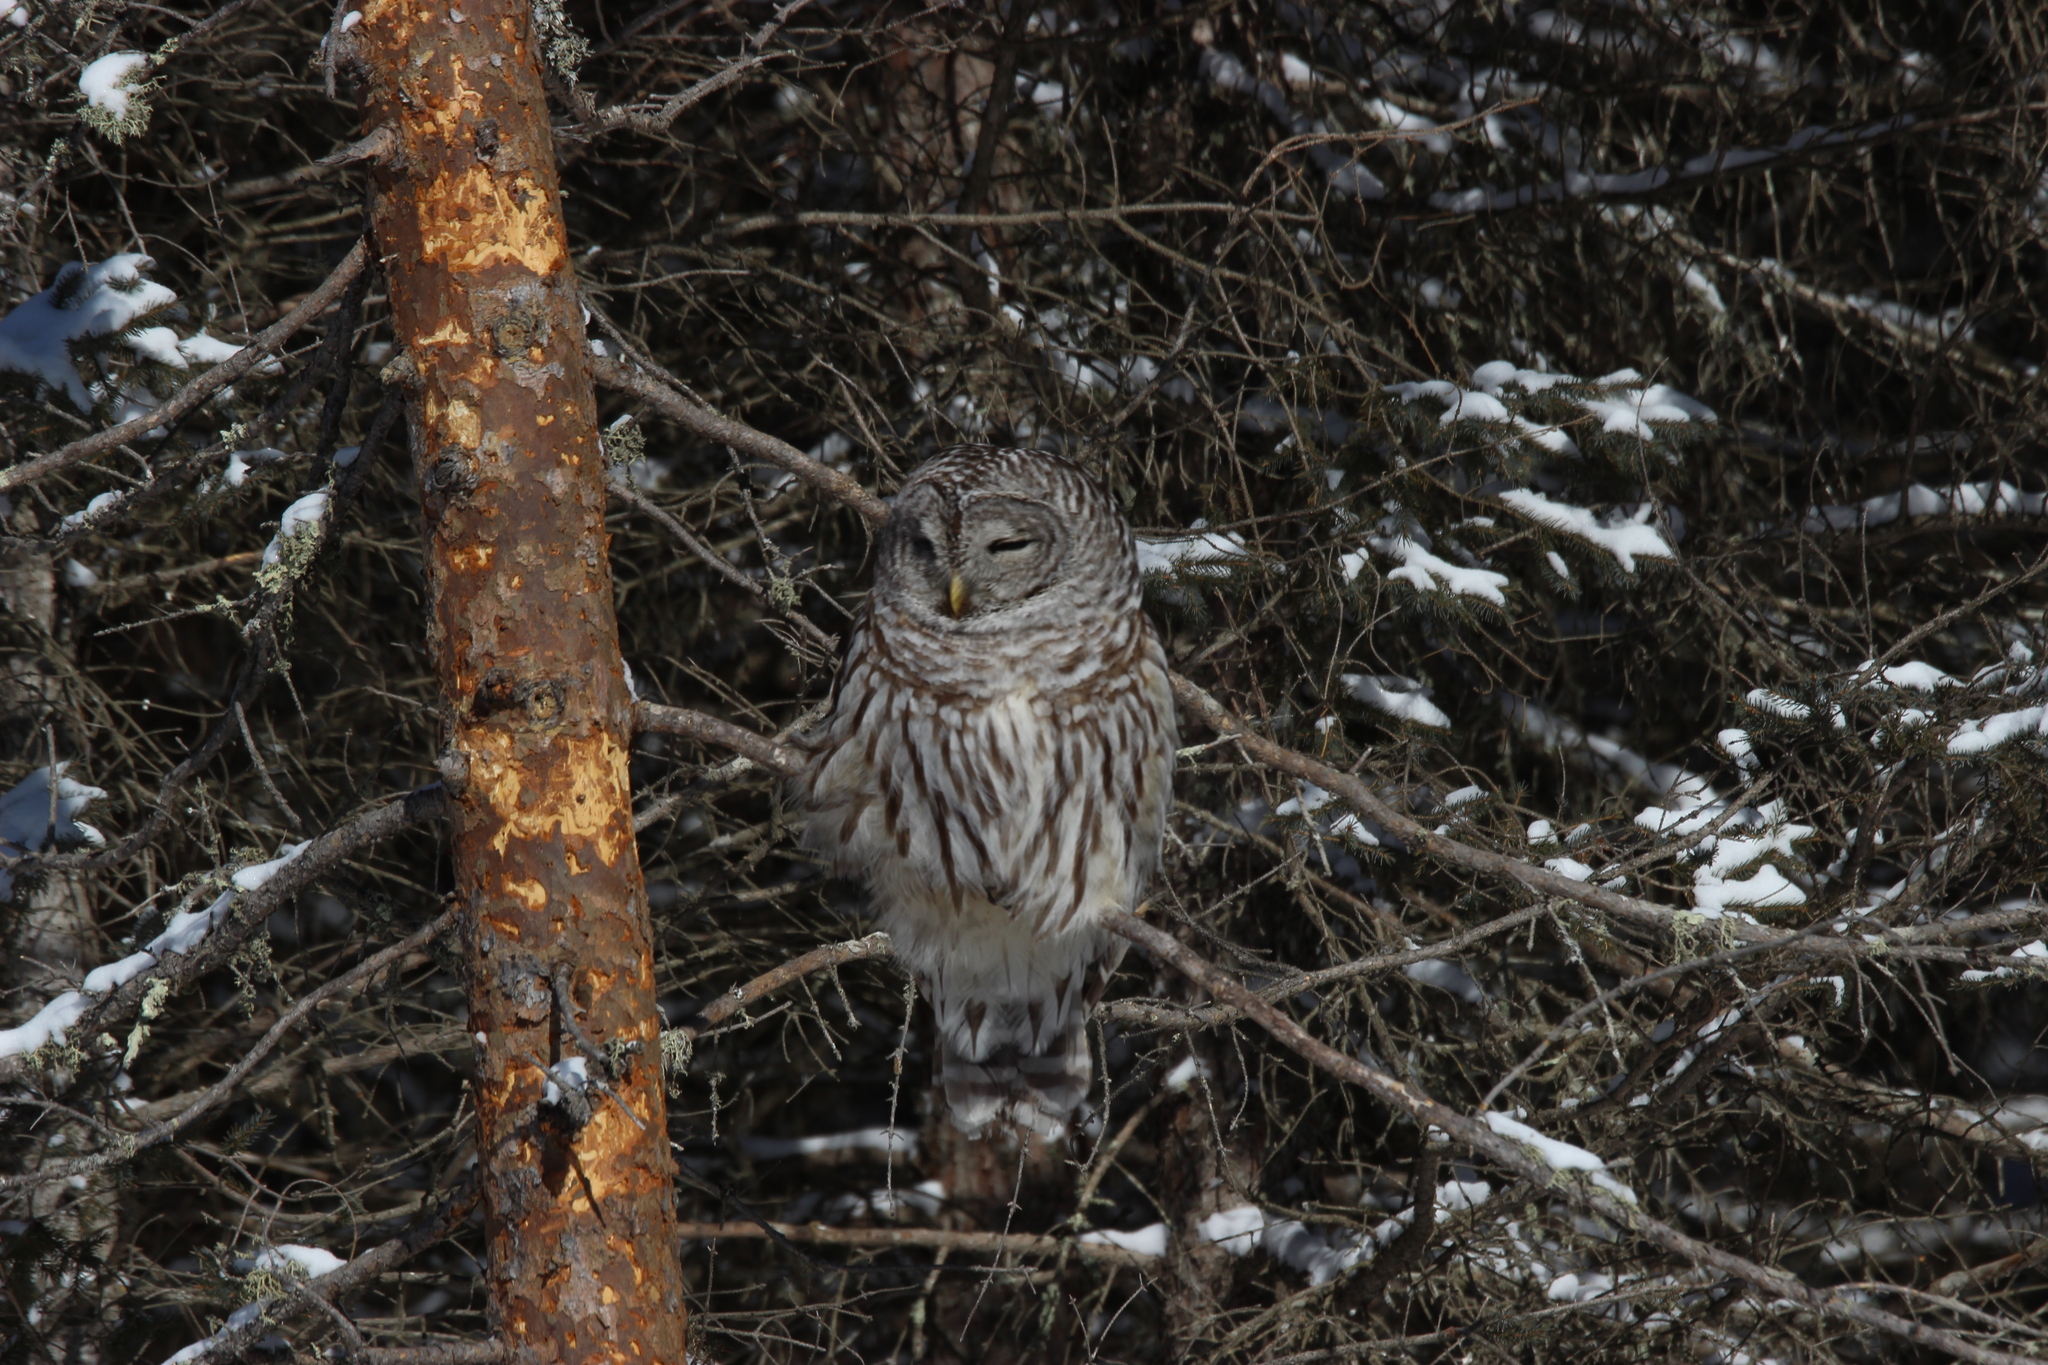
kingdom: Animalia
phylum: Chordata
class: Aves
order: Strigiformes
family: Strigidae
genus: Strix
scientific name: Strix varia
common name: Barred owl
